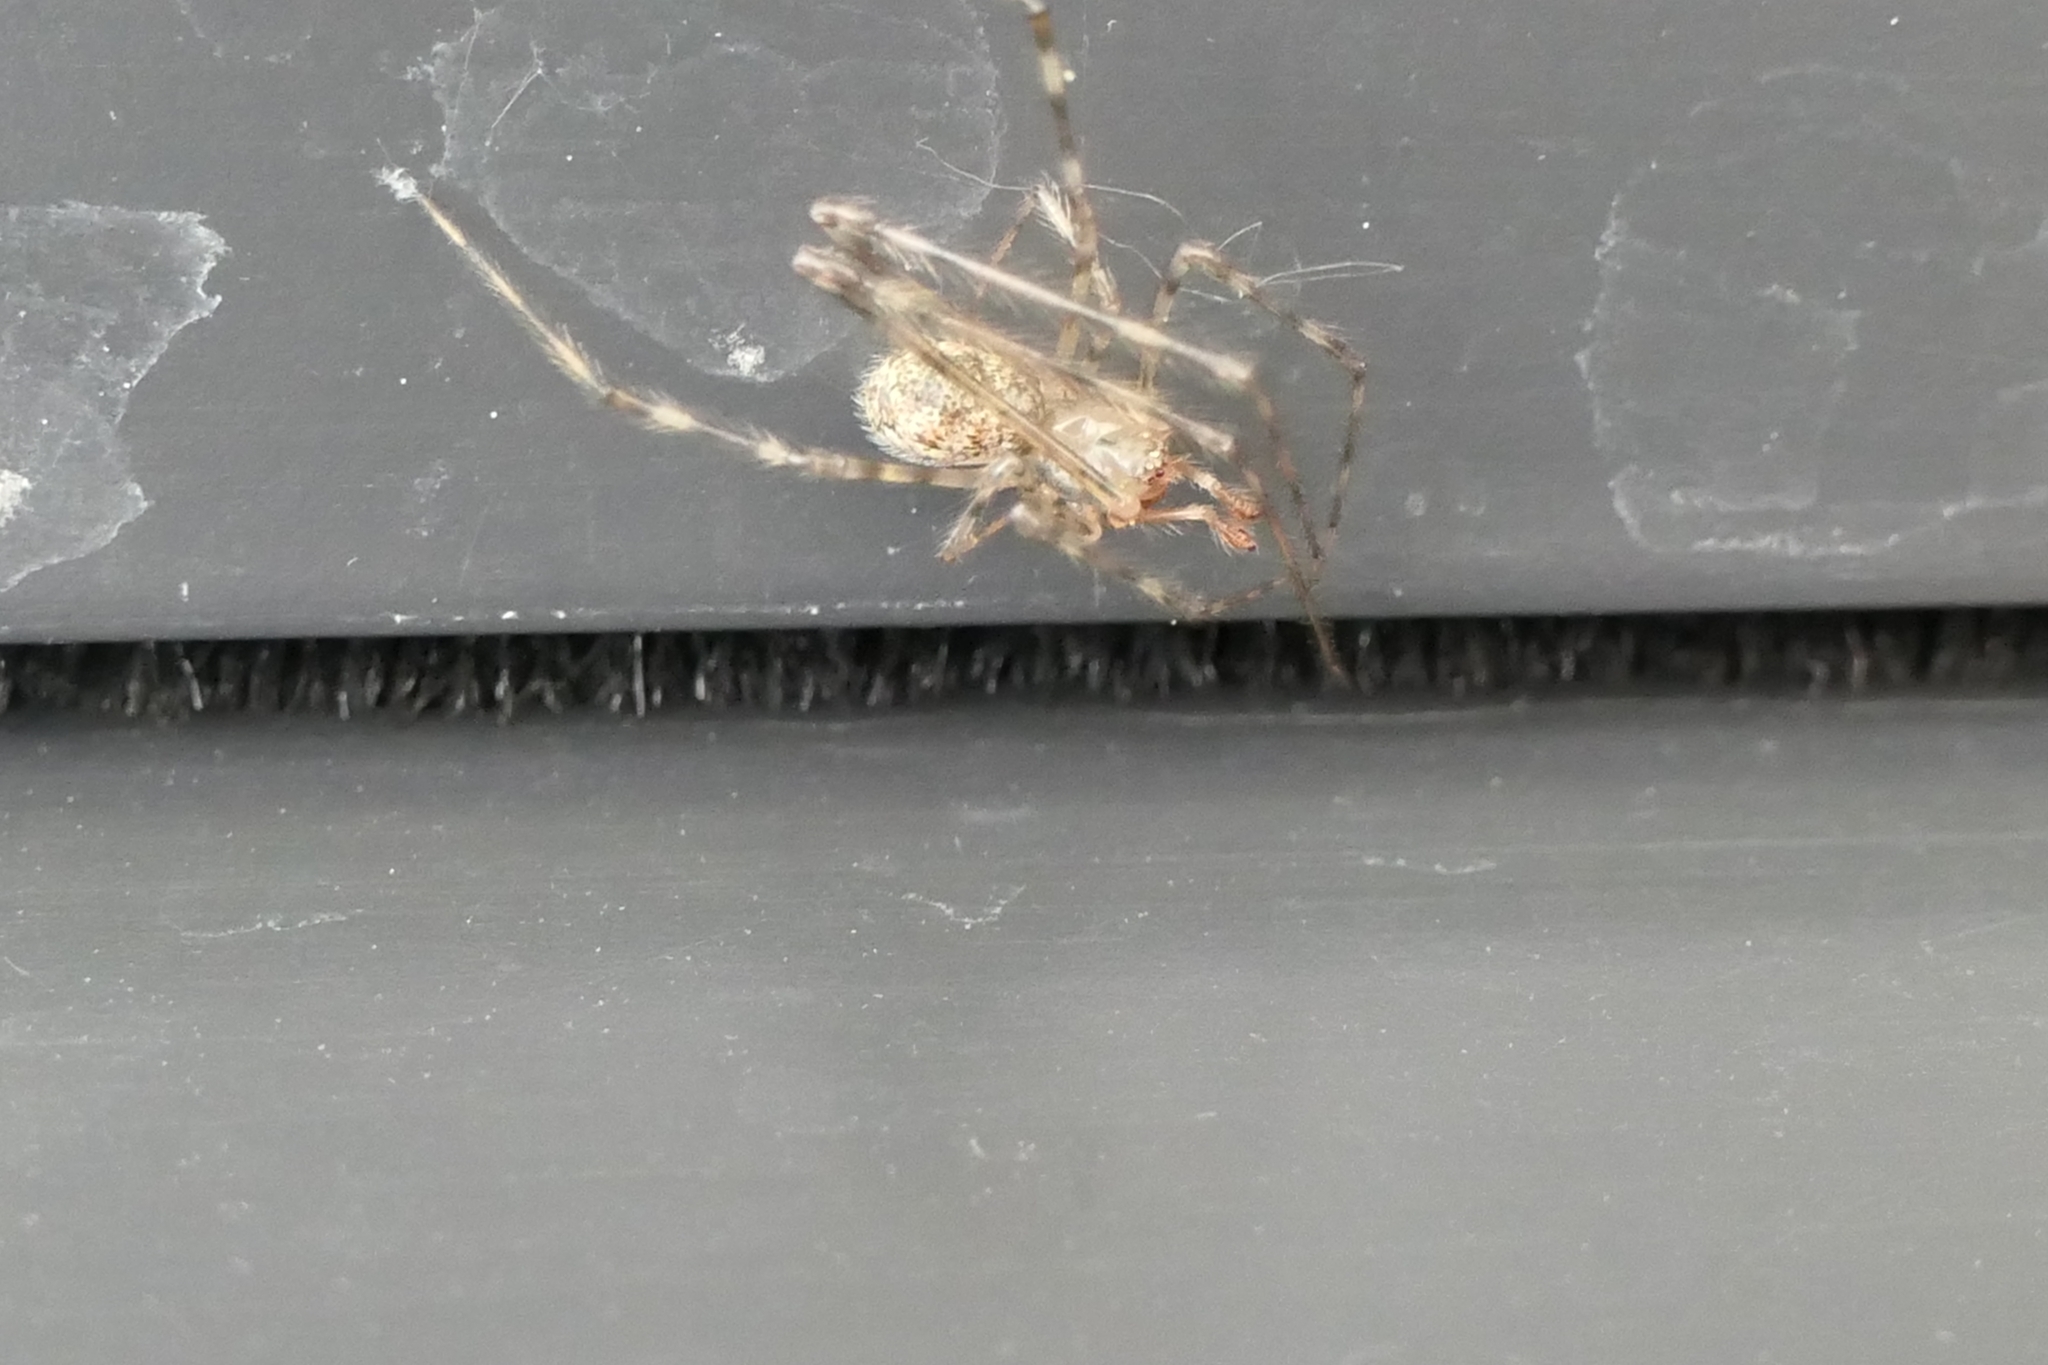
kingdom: Animalia
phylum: Arthropoda
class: Arachnida
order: Araneae
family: Theridiidae
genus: Cryptachaea
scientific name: Cryptachaea gigantipes
